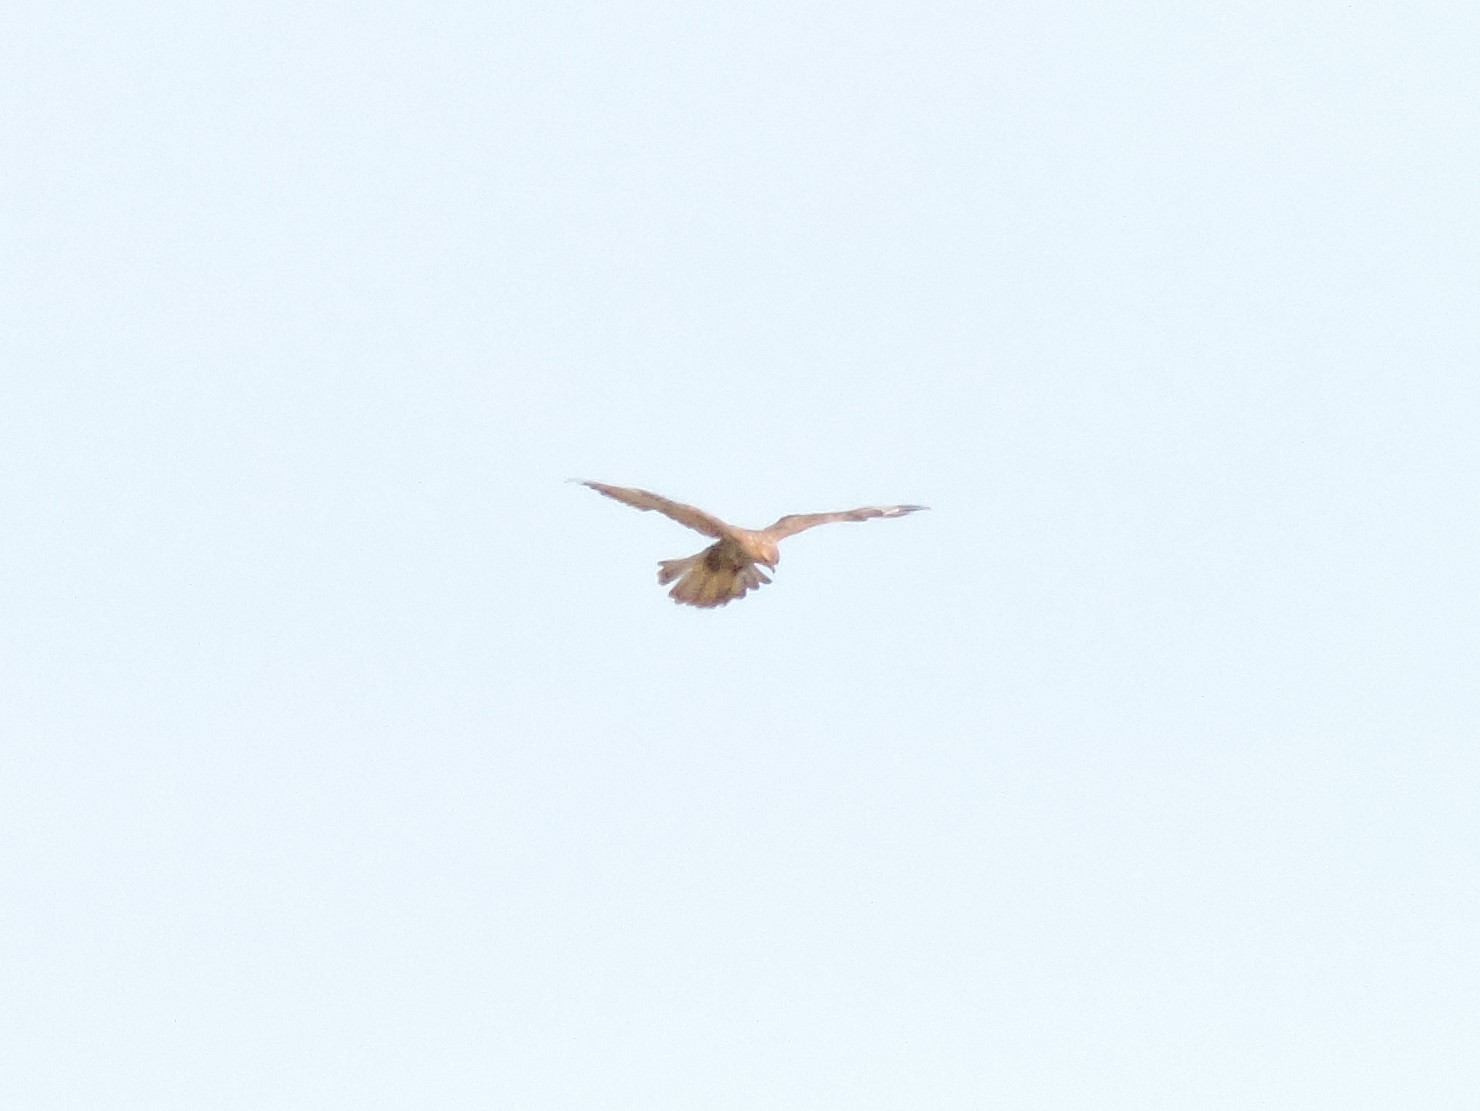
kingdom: Animalia
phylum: Chordata
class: Aves
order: Accipitriformes
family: Accipitridae
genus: Buteo
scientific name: Buteo buteo
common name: Common buzzard
